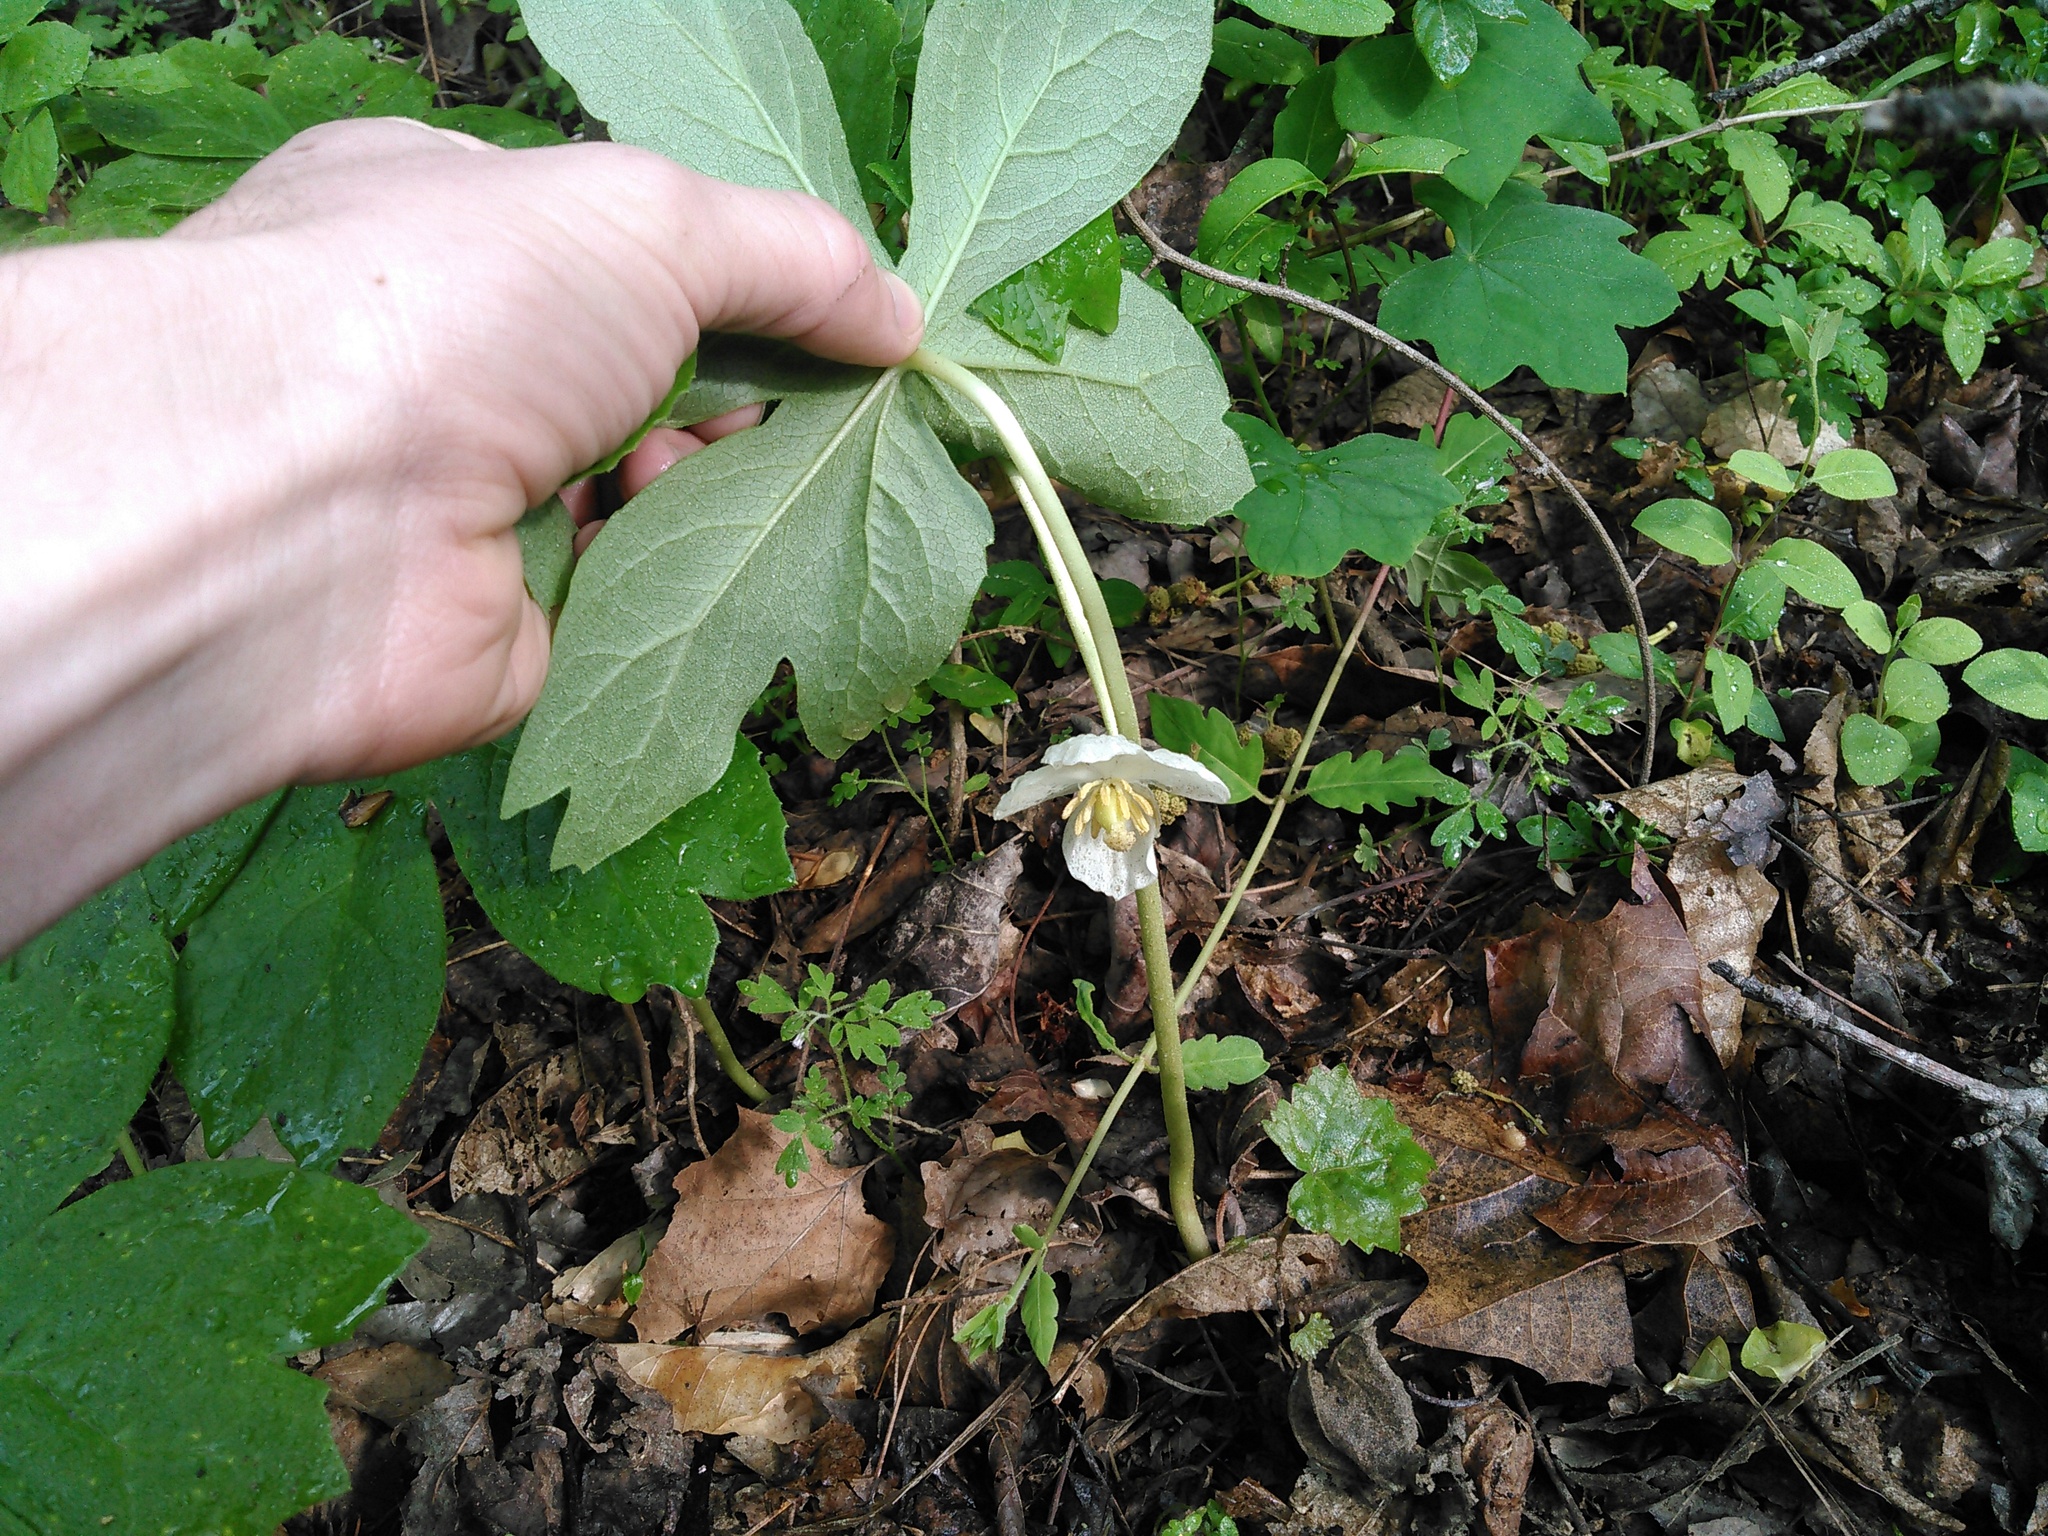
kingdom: Plantae
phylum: Tracheophyta
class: Magnoliopsida
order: Ranunculales
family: Berberidaceae
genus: Podophyllum
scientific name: Podophyllum peltatum
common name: Wild mandrake
